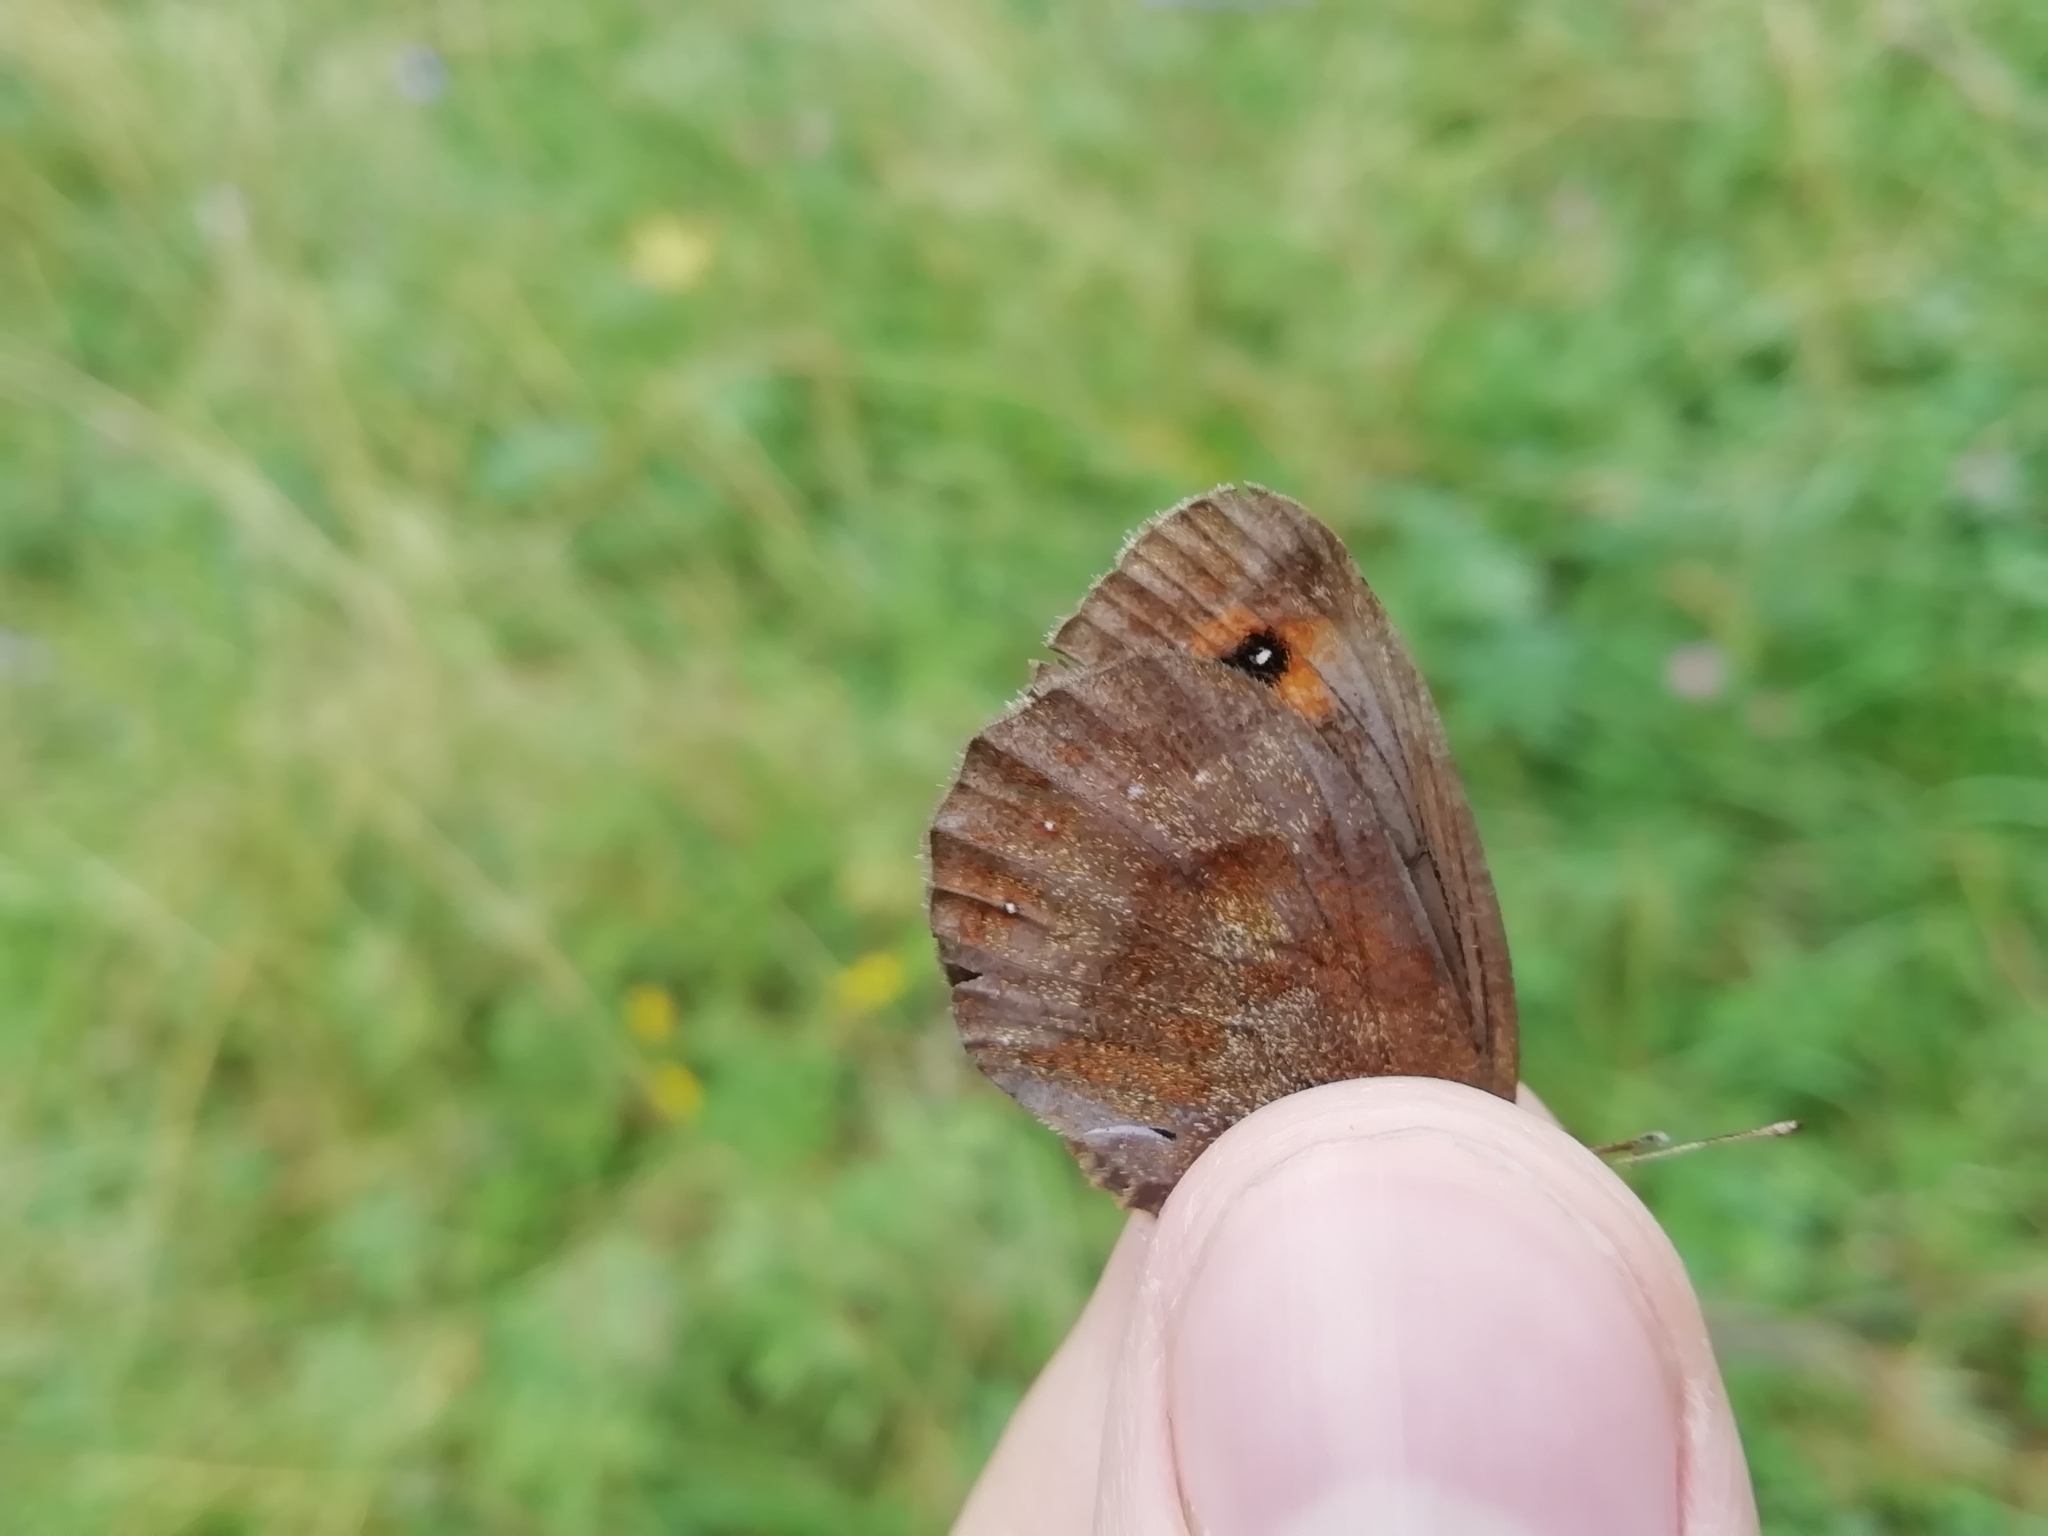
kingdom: Animalia
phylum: Arthropoda
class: Insecta
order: Lepidoptera
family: Nymphalidae
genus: Erebia
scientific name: Erebia aethiops
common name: Scotch argus
